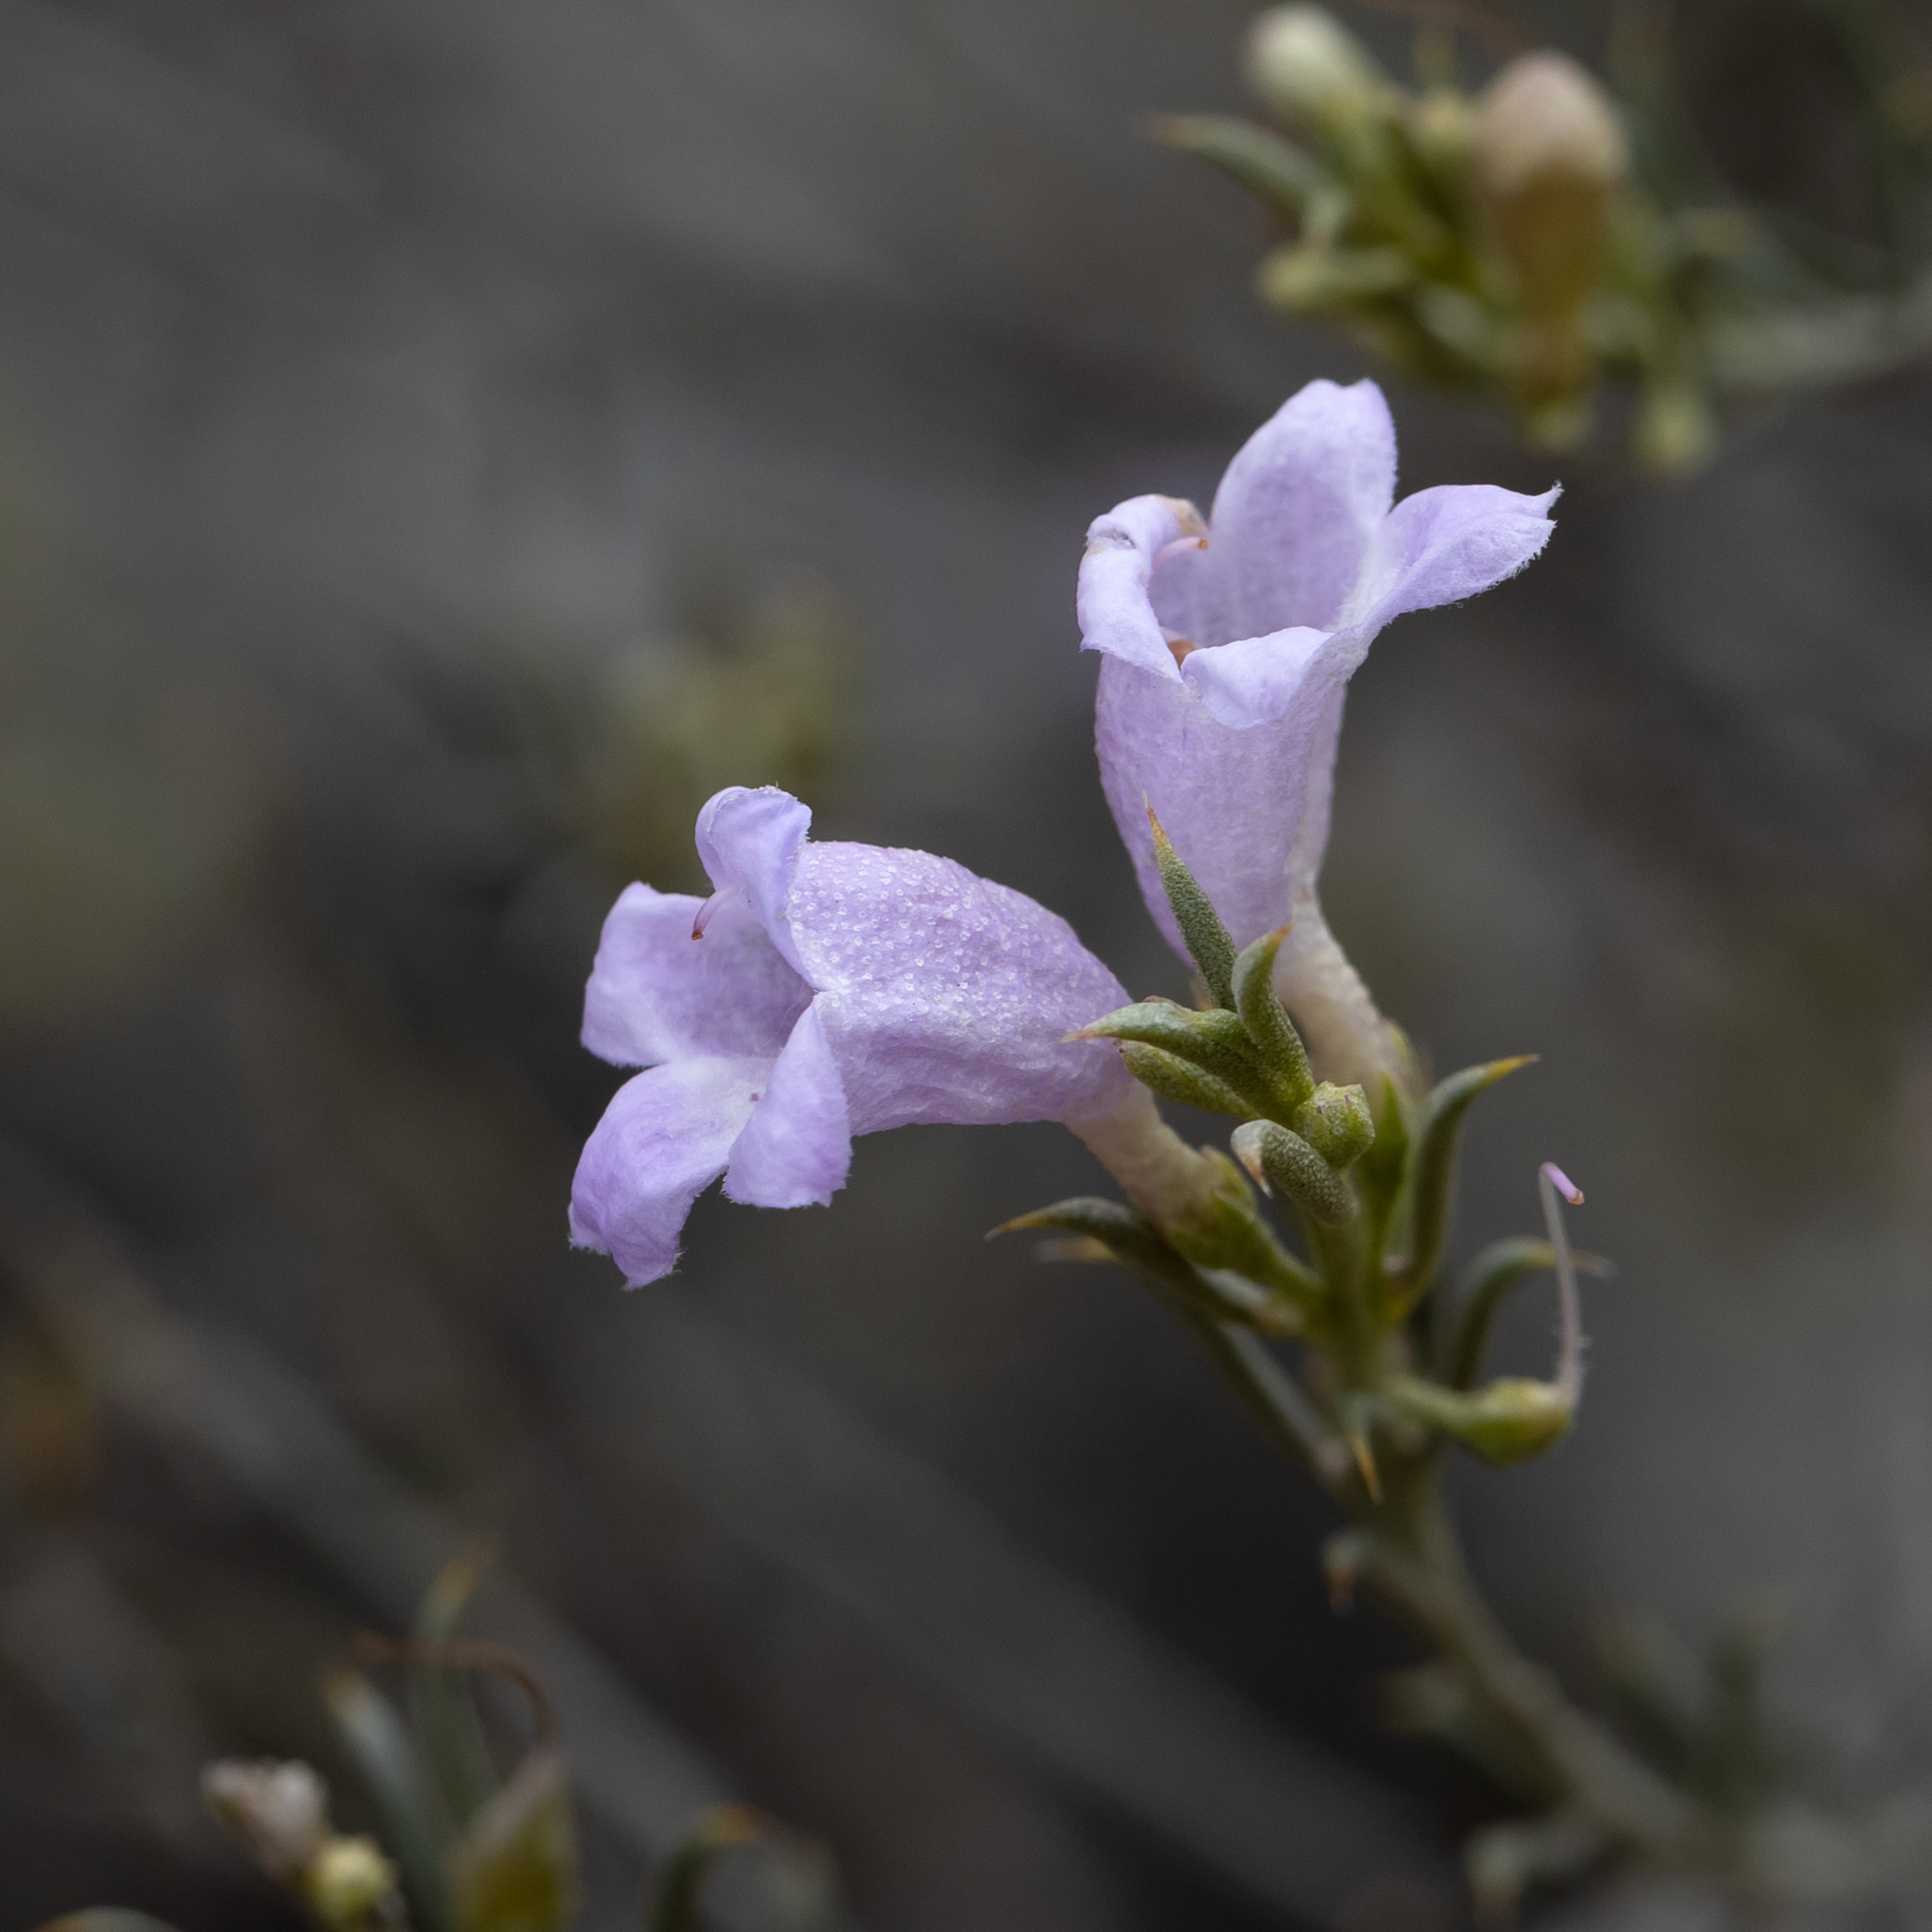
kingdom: Plantae
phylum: Tracheophyta
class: Magnoliopsida
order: Lamiales
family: Scrophulariaceae
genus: Eremophila
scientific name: Eremophila scoparia
